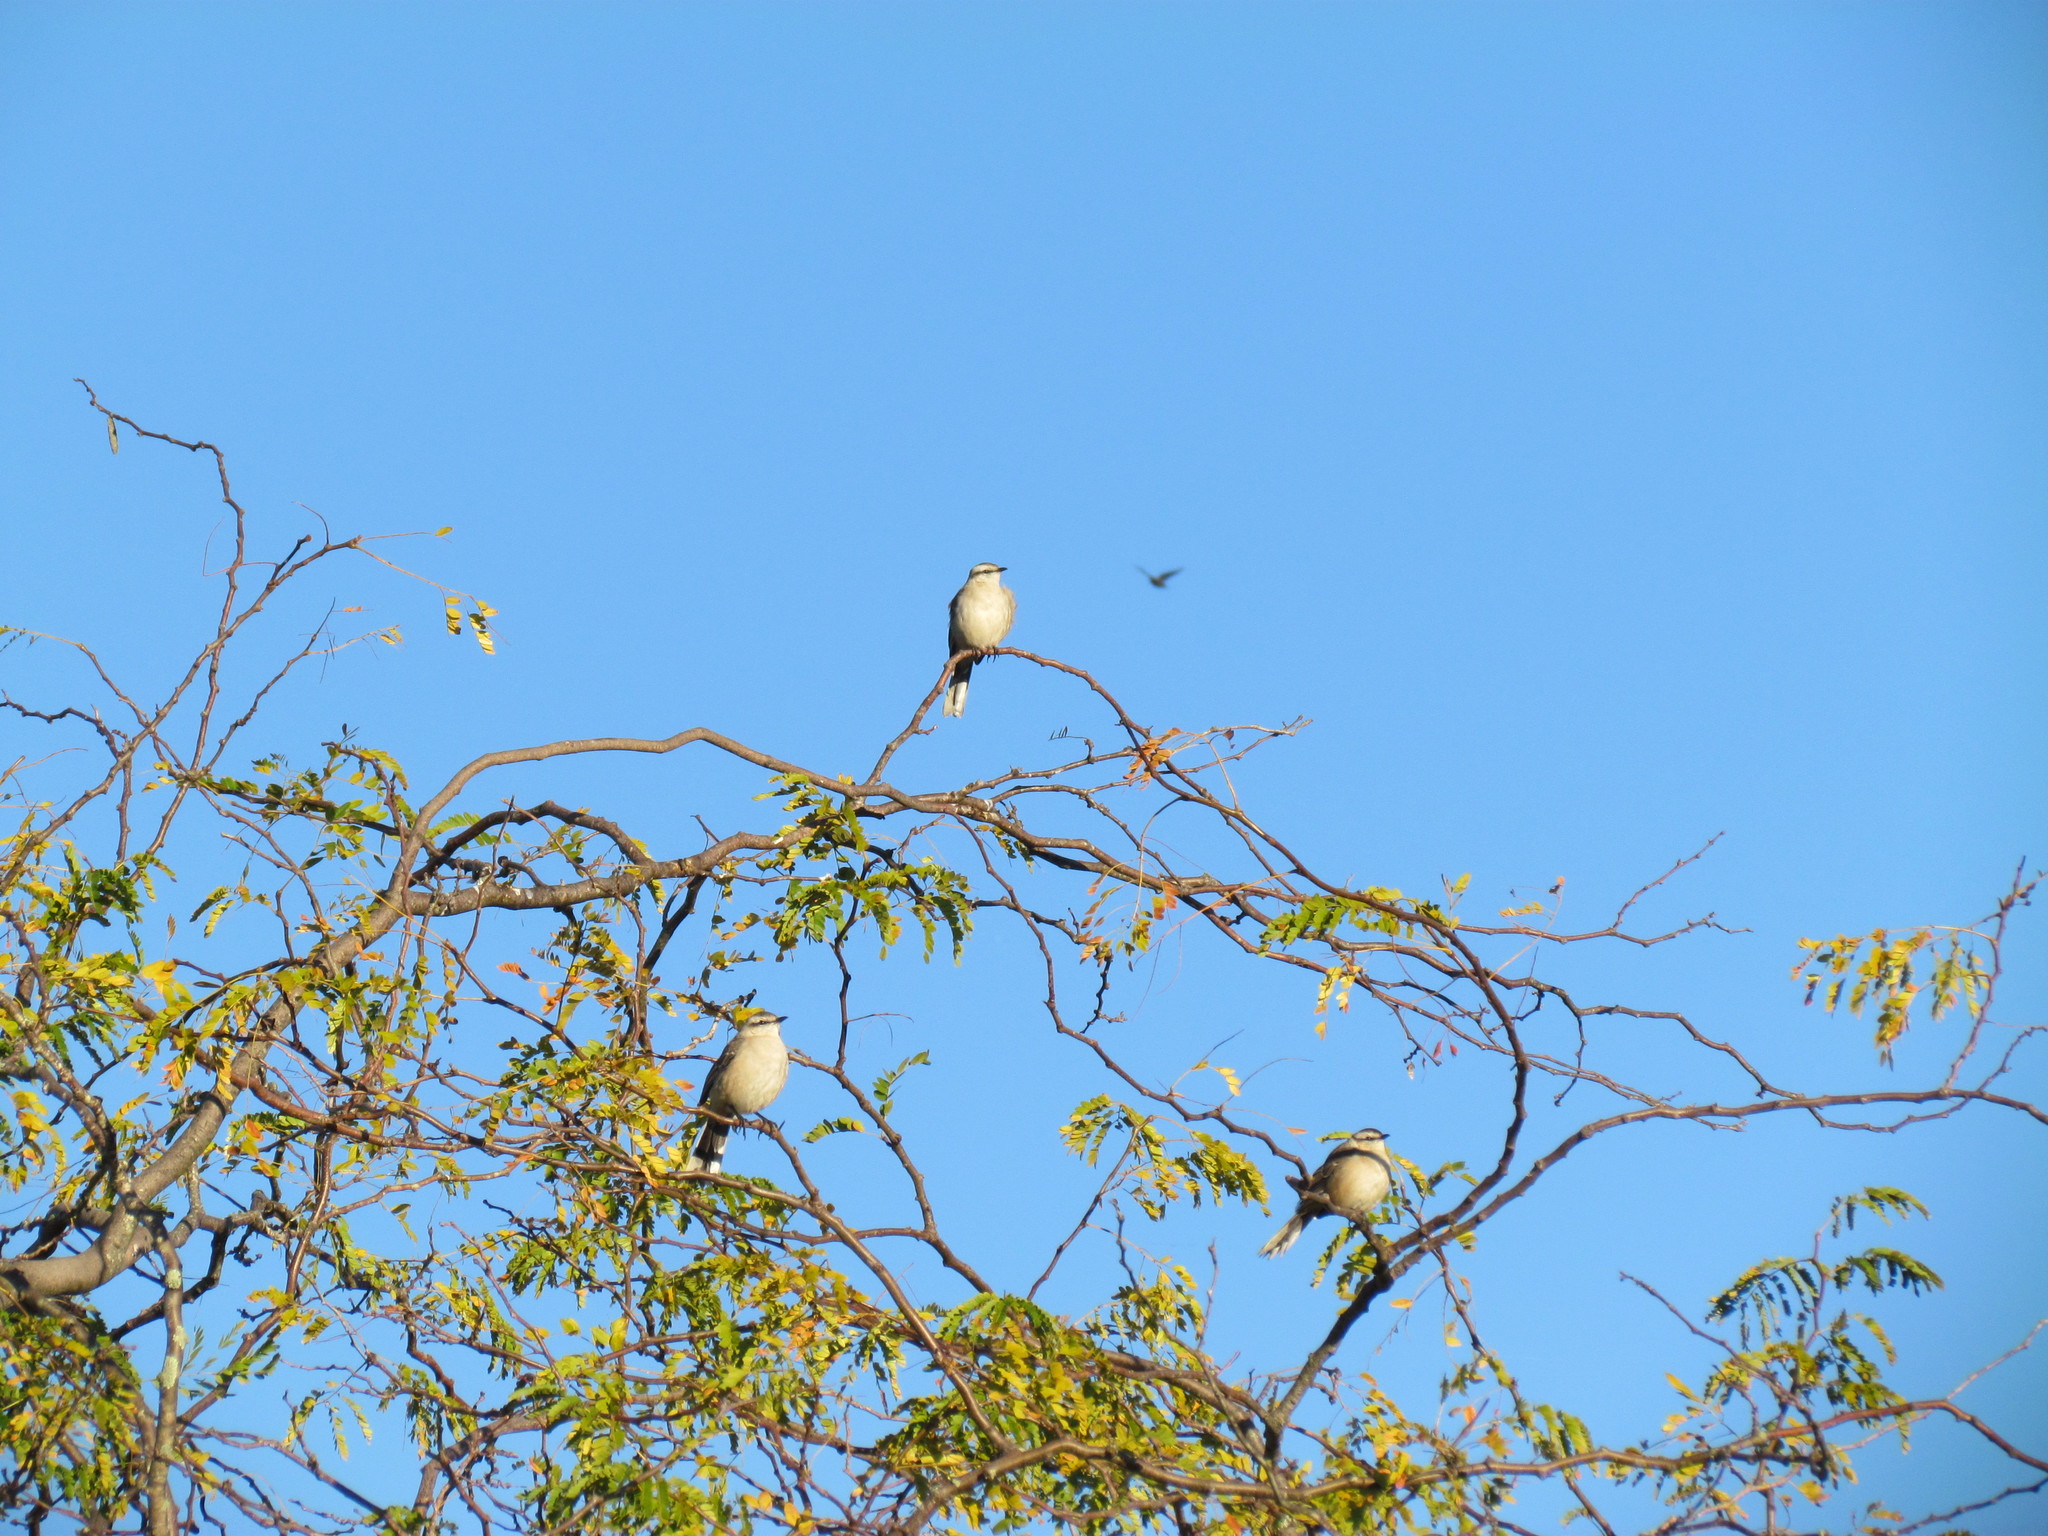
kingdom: Animalia
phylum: Chordata
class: Aves
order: Passeriformes
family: Mimidae
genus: Mimus
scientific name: Mimus saturninus
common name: Chalk-browed mockingbird
